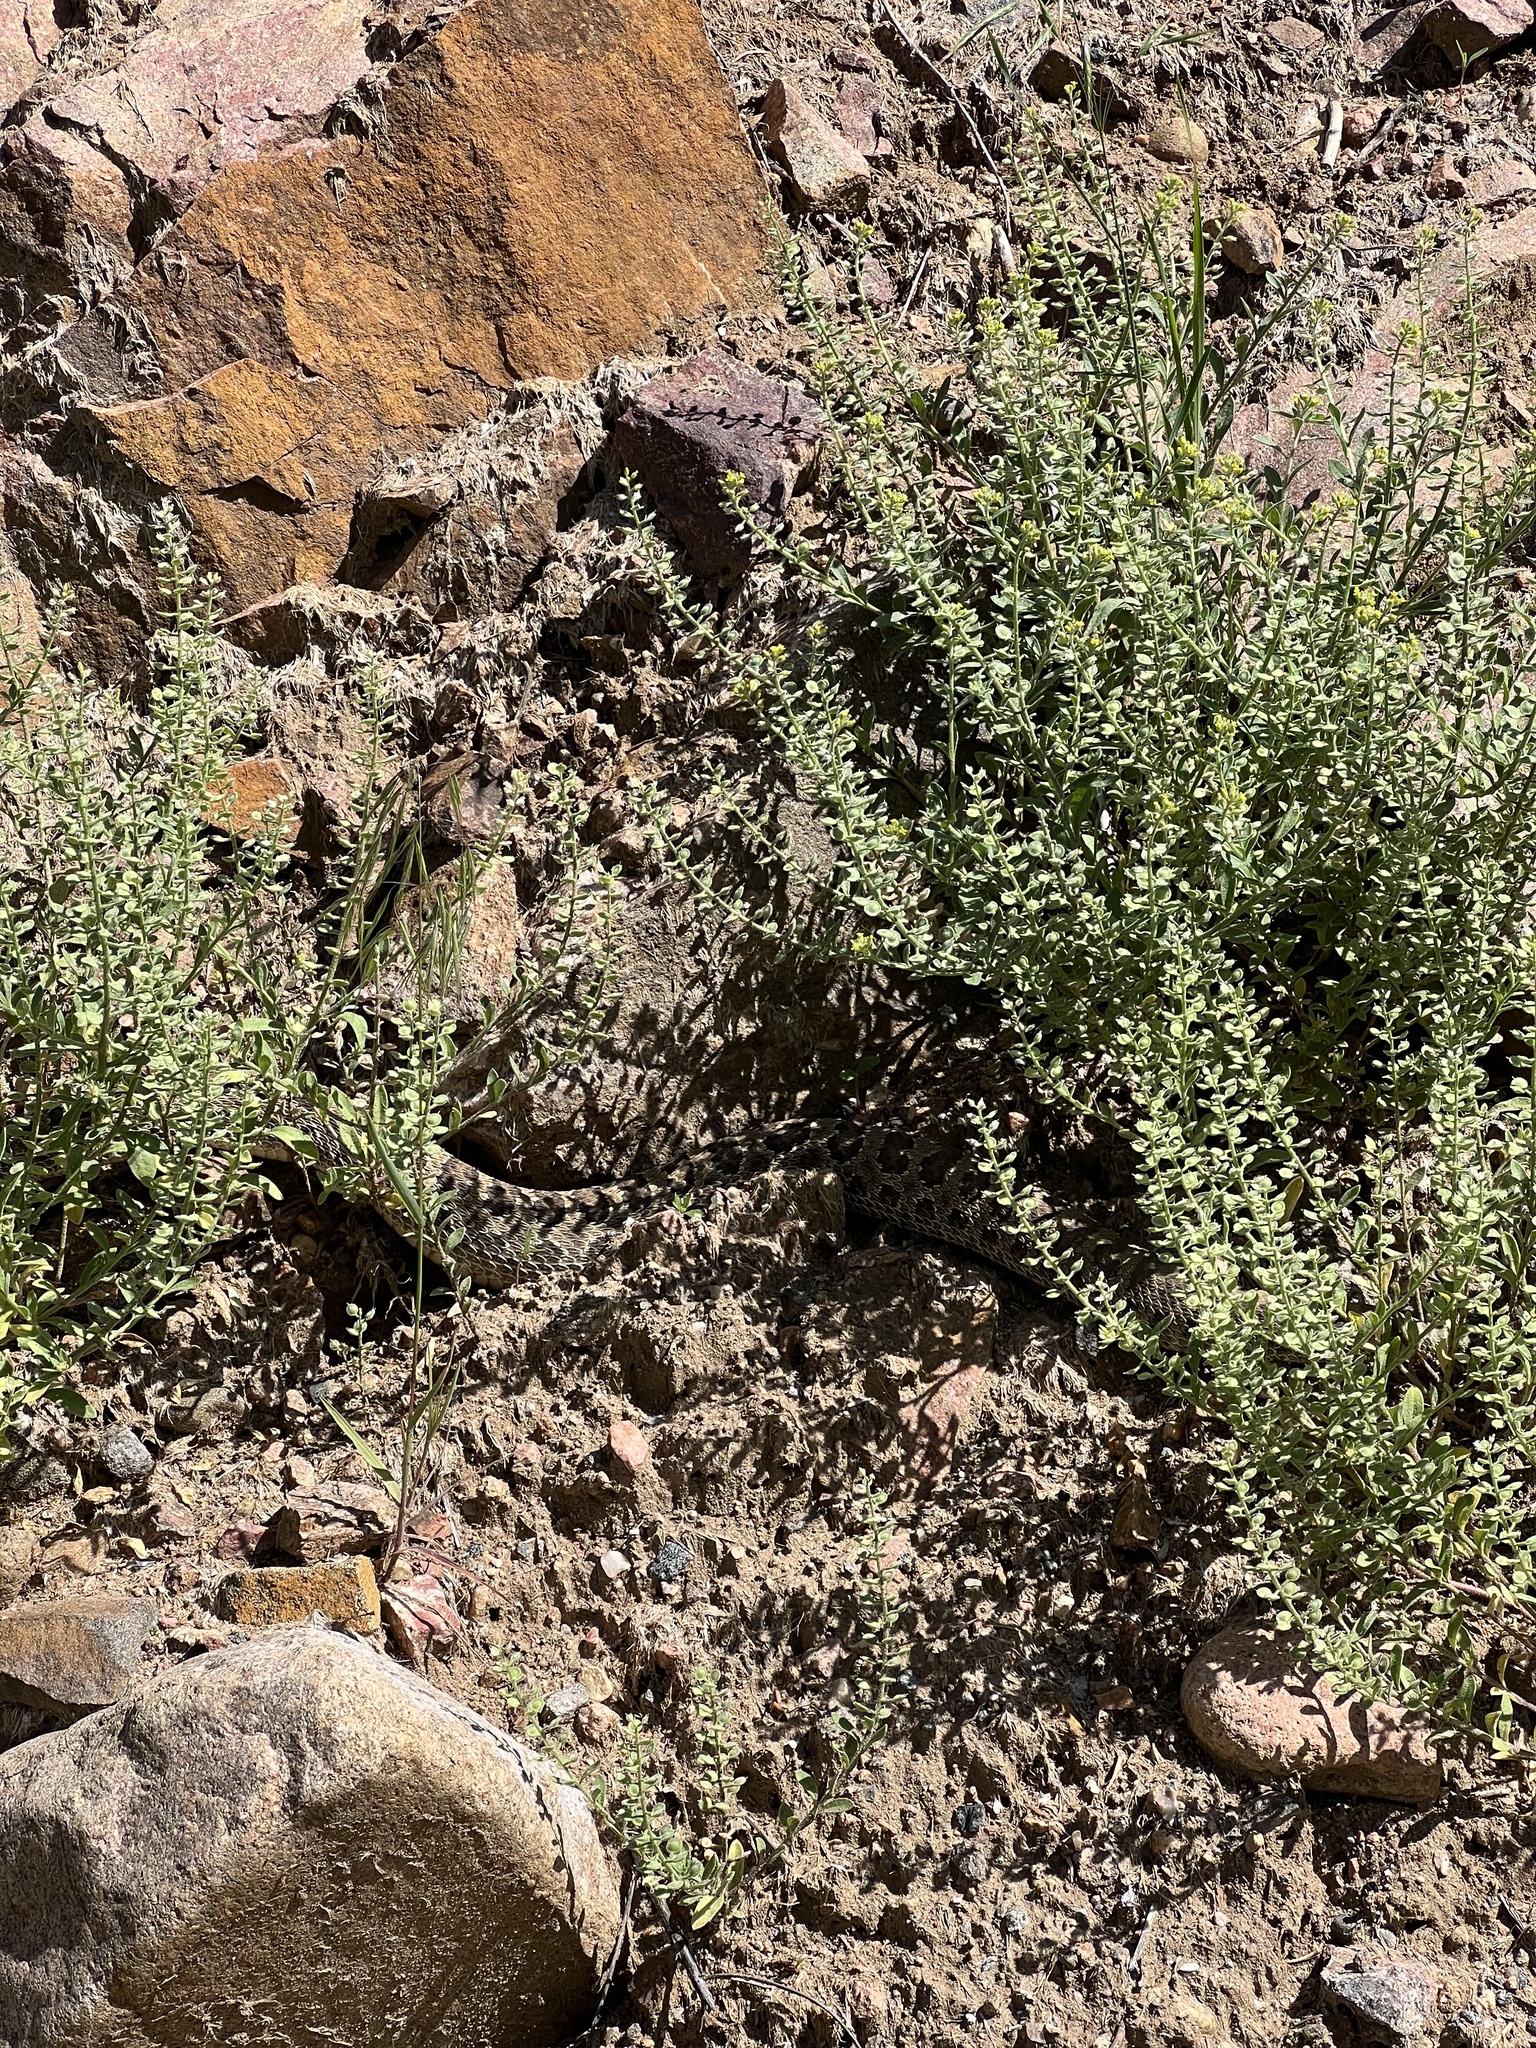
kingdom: Animalia
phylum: Chordata
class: Squamata
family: Viperidae
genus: Crotalus
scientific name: Crotalus viridis
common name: Prairie rattlesnake
